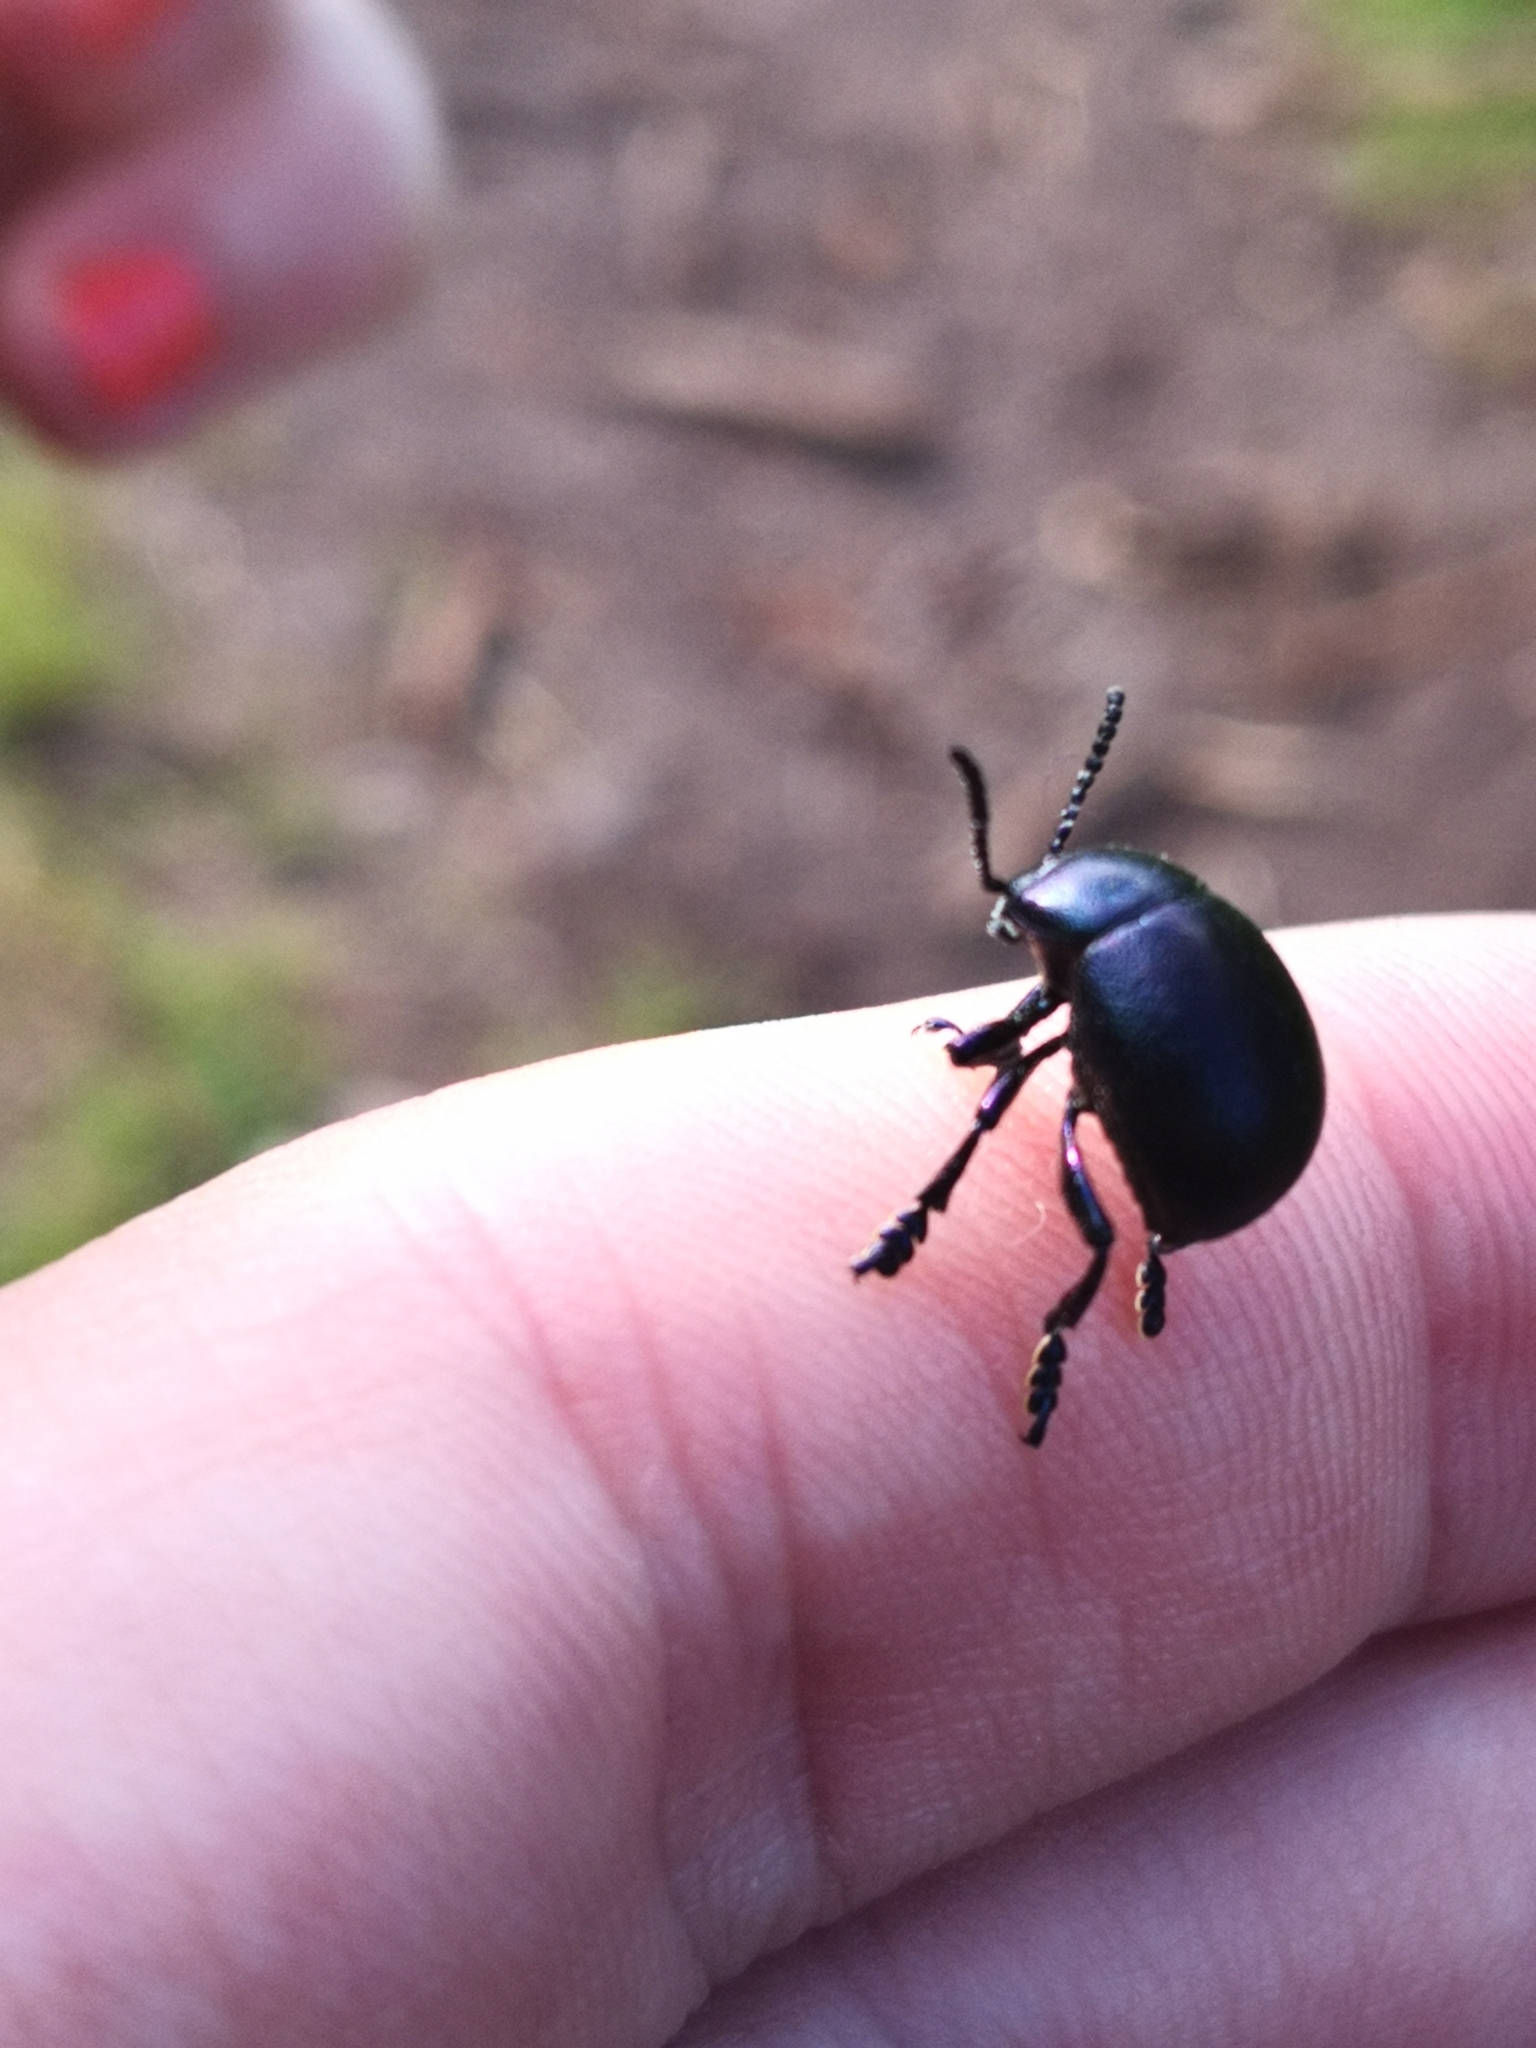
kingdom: Animalia
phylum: Arthropoda
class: Insecta
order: Coleoptera
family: Chrysomelidae
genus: Timarcha
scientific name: Timarcha goettingensis
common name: Small bloody-nosed beetle
